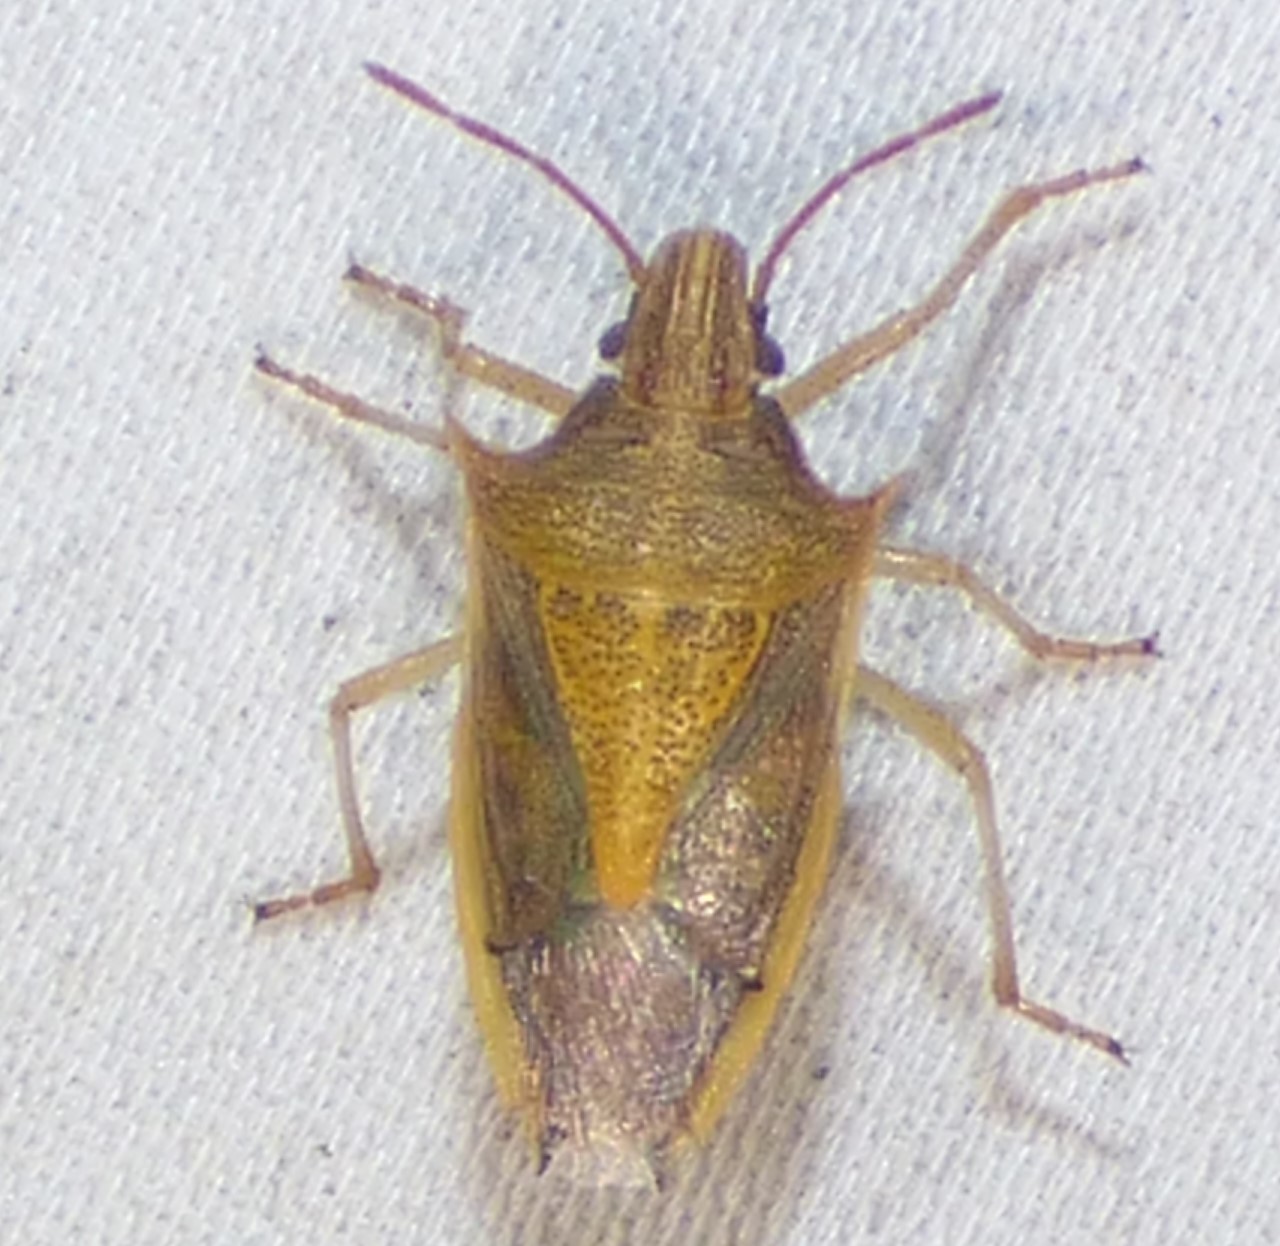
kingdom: Animalia
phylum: Arthropoda
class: Insecta
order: Hemiptera
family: Pentatomidae
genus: Oebalus
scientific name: Oebalus pugnax
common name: Rice stink bug
